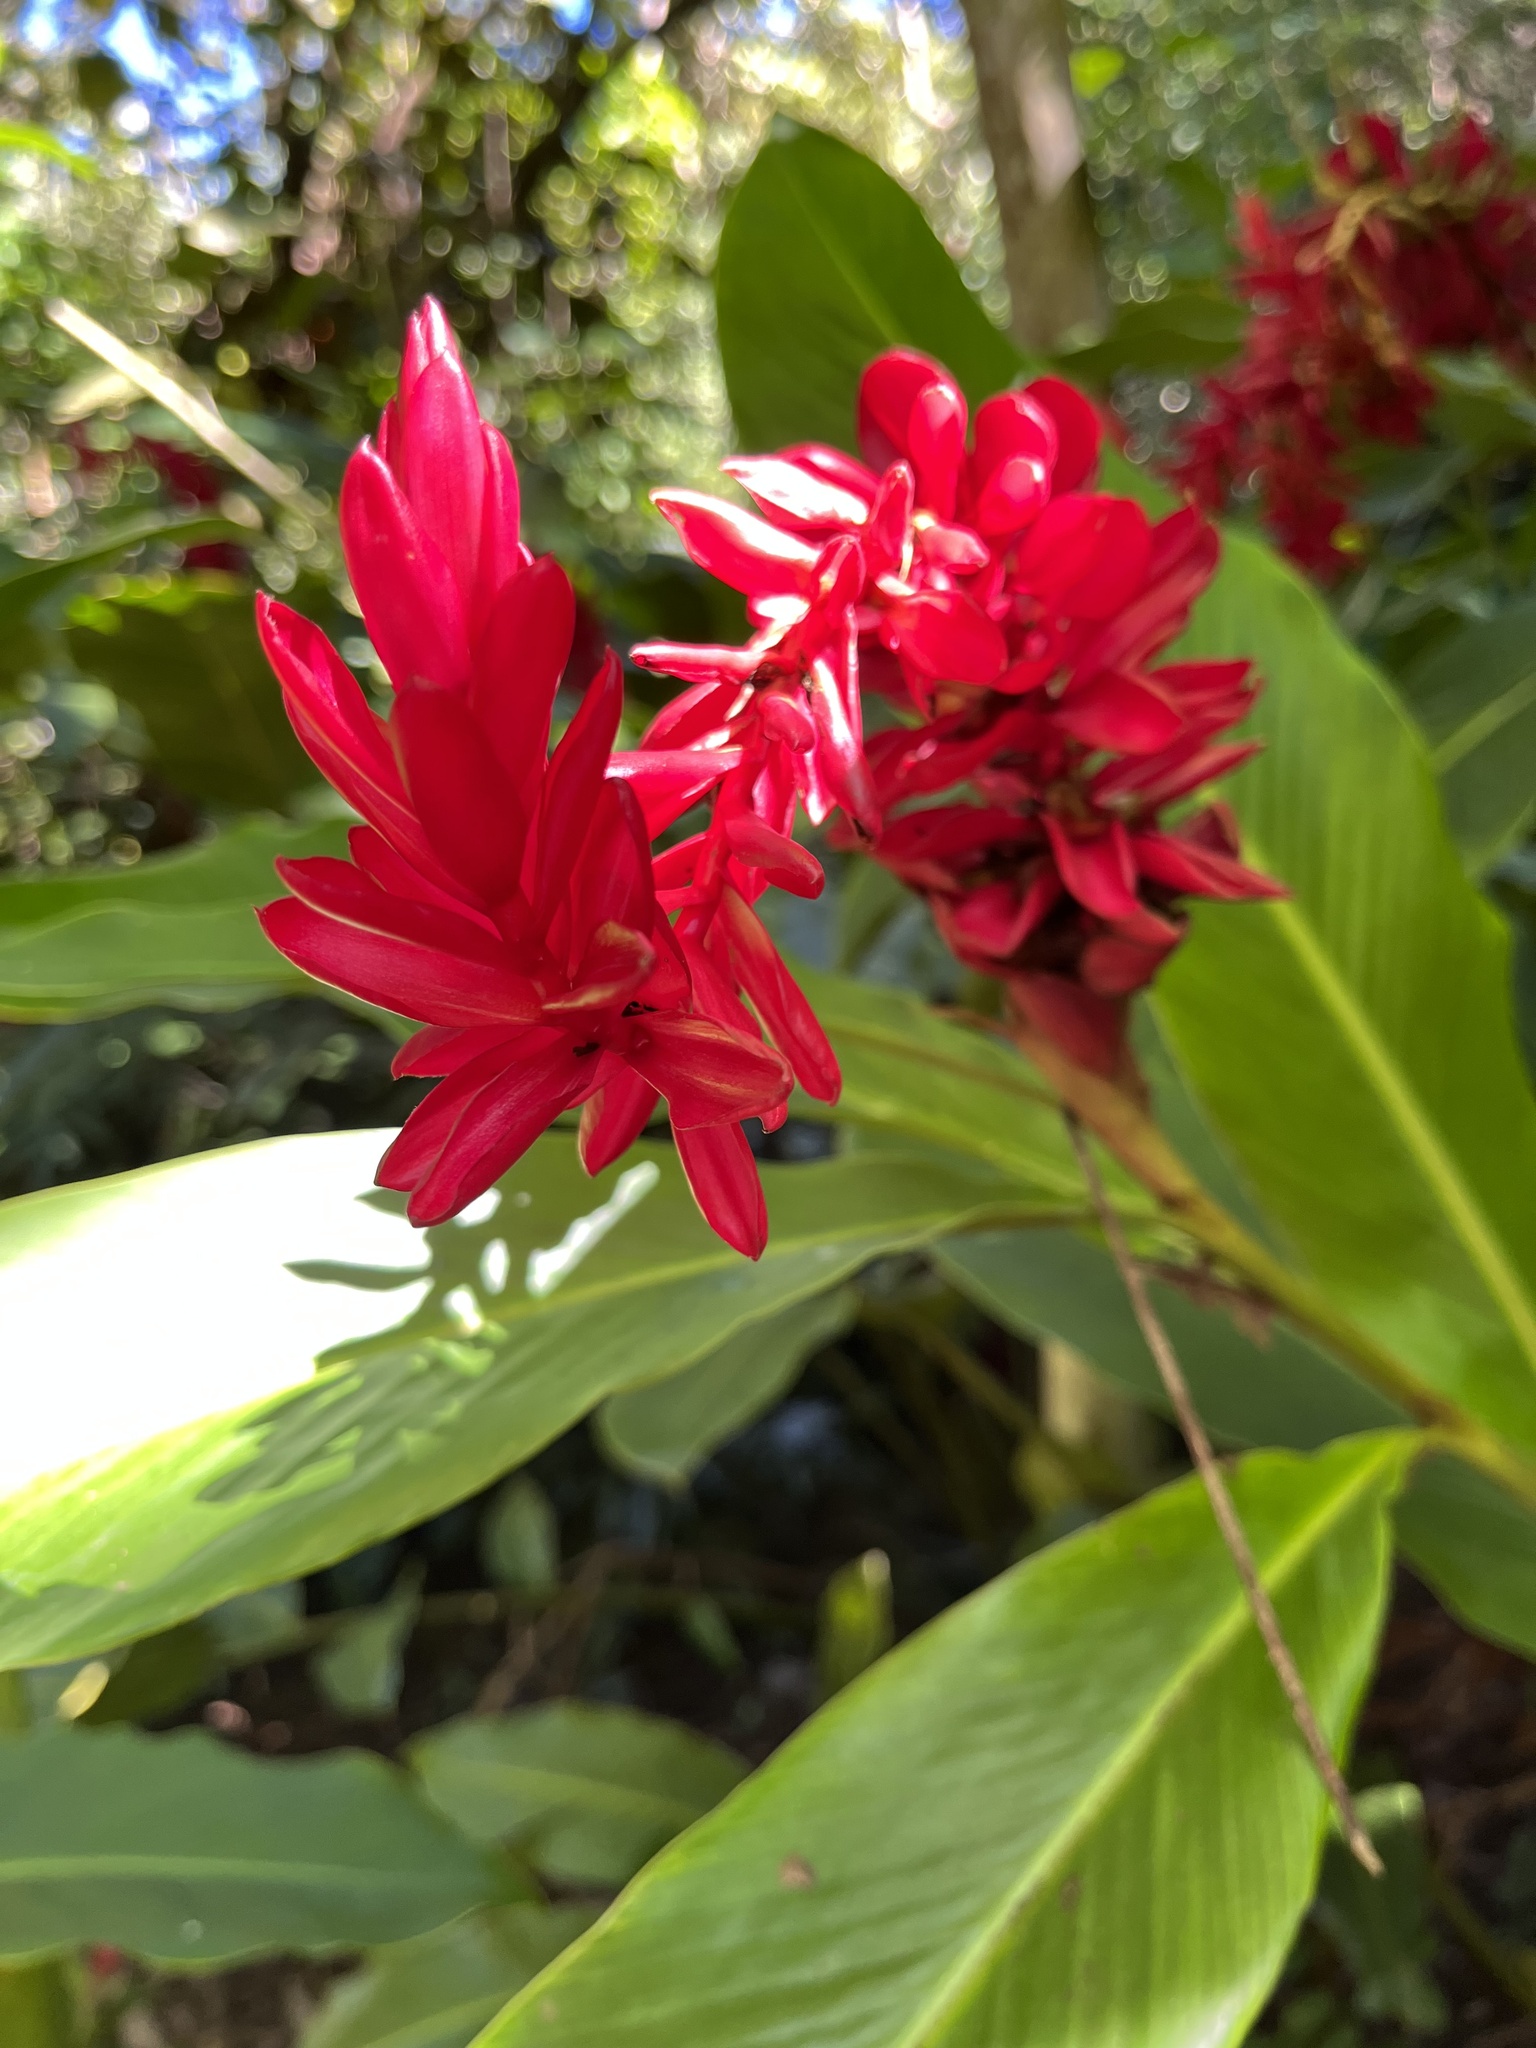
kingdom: Plantae
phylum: Tracheophyta
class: Liliopsida
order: Zingiberales
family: Zingiberaceae
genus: Alpinia
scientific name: Alpinia purpurata
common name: Red ginger
